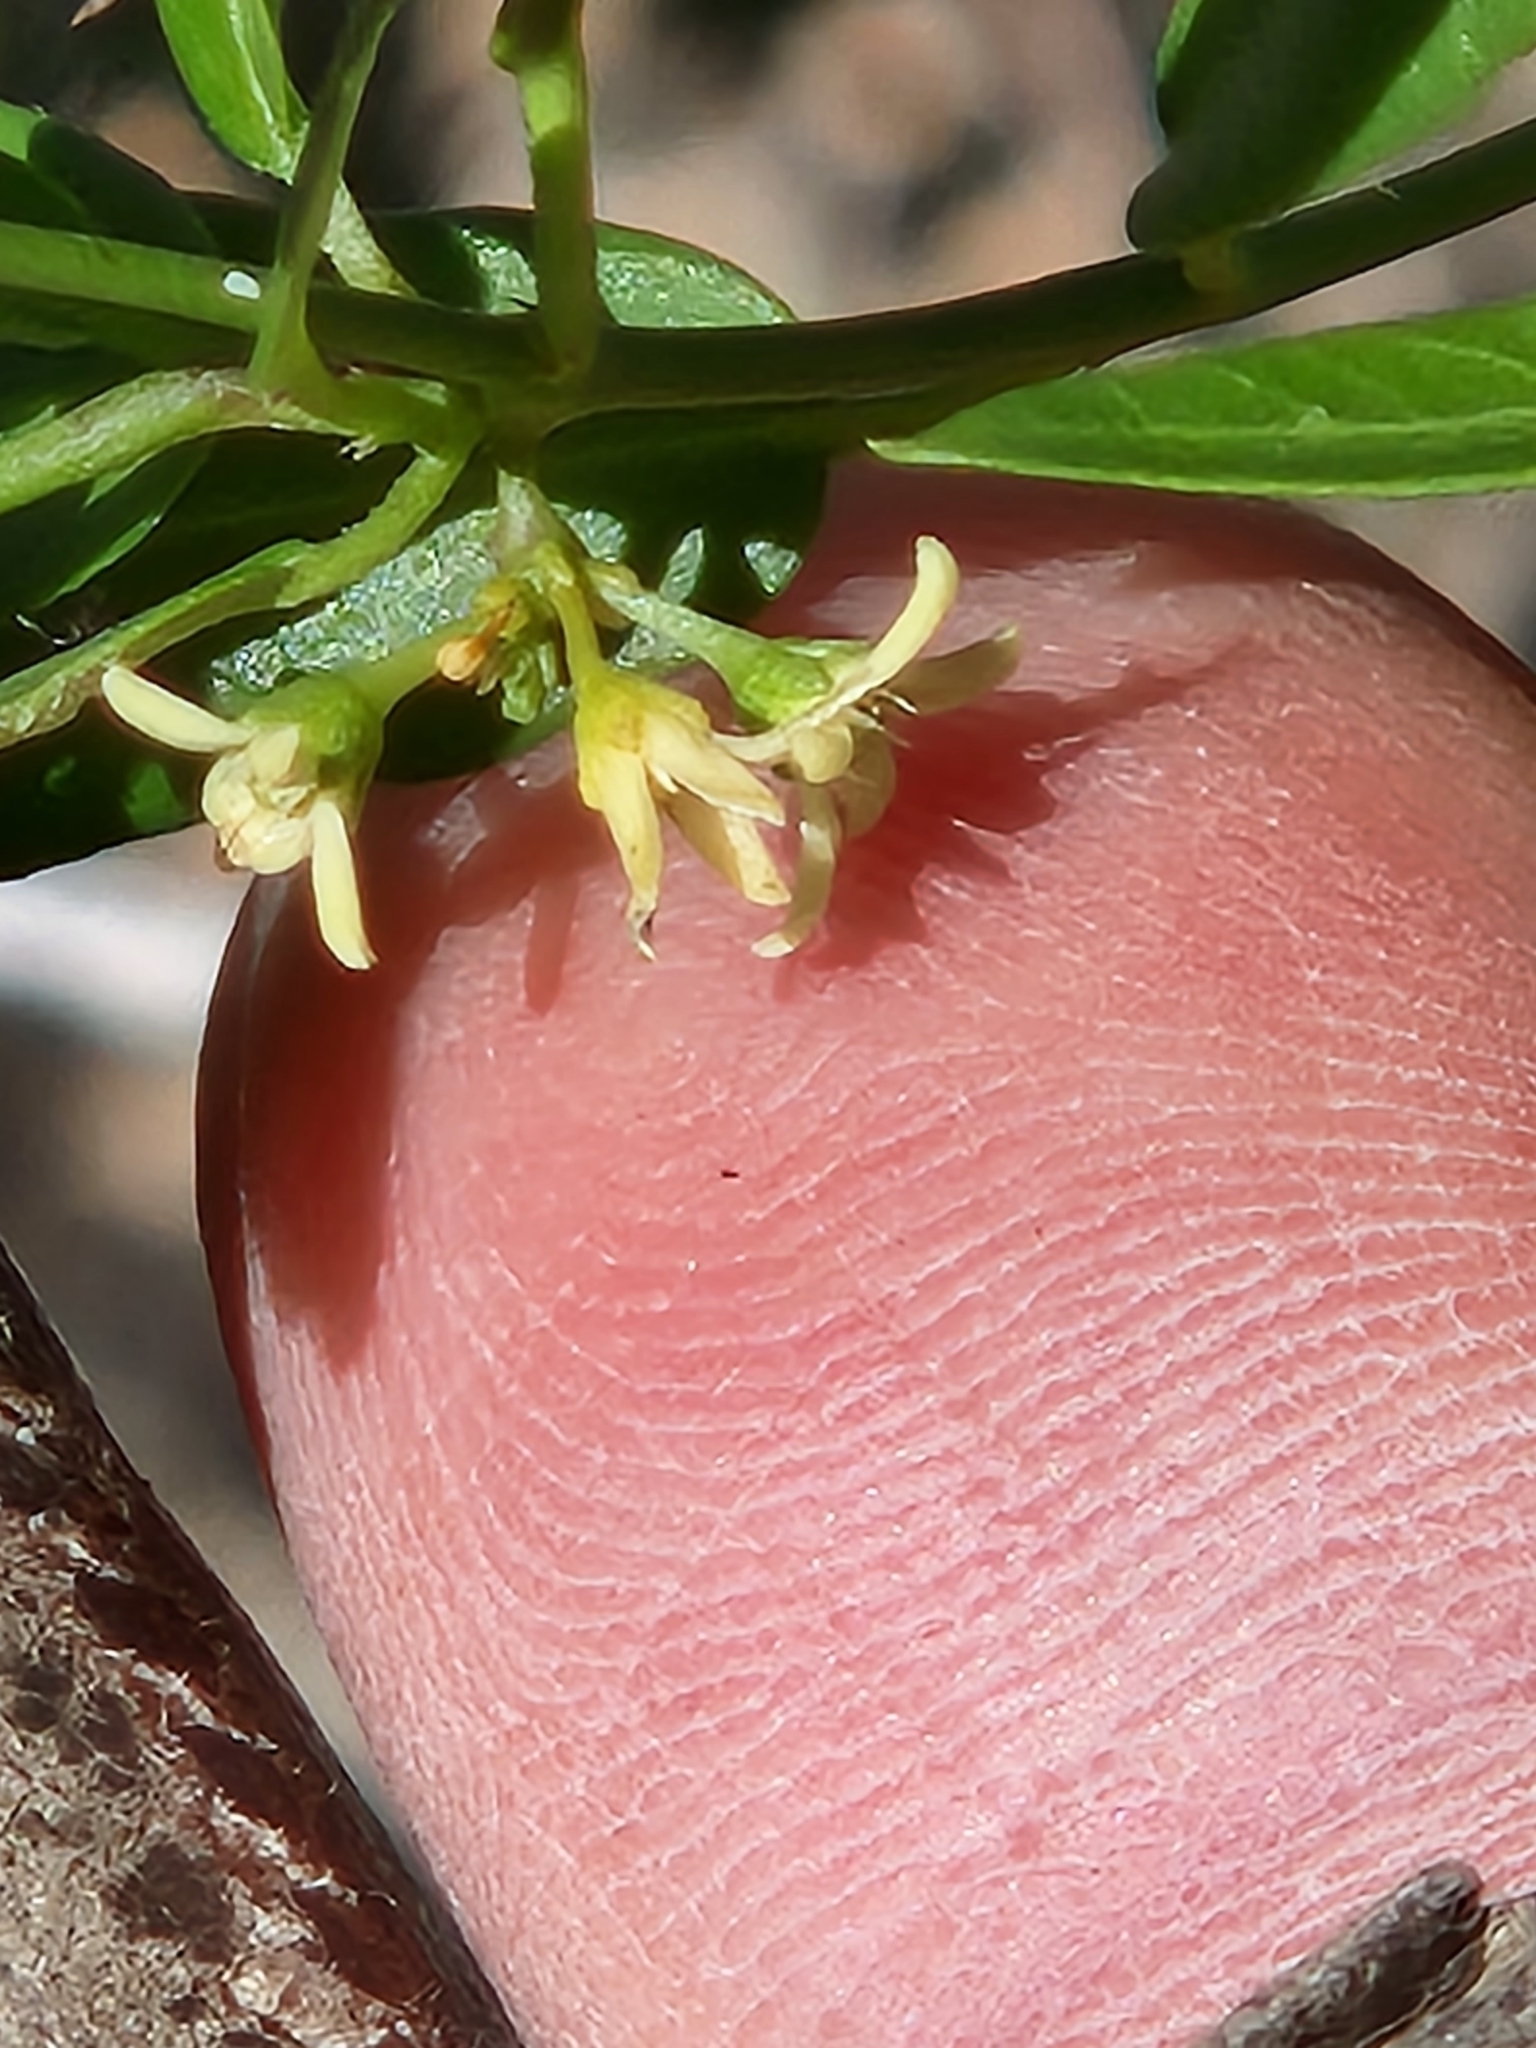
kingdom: Plantae
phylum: Tracheophyta
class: Magnoliopsida
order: Gentianales
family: Apocynaceae
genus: Metastelma
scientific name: Metastelma palmeri
